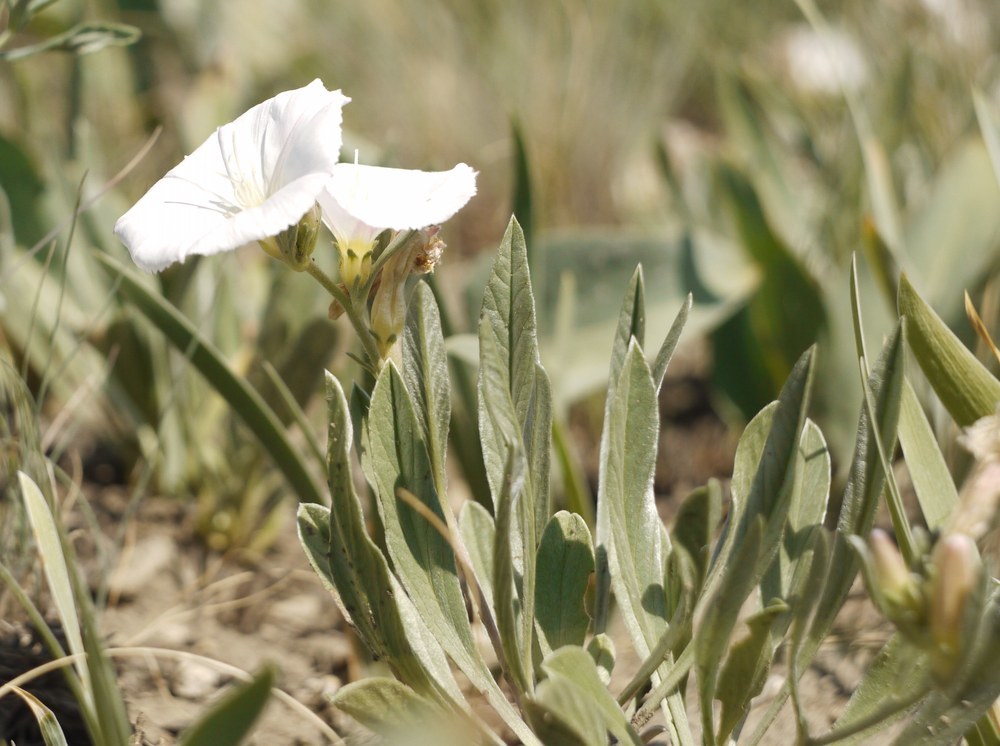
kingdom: Plantae
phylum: Tracheophyta
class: Magnoliopsida
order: Solanales
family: Convolvulaceae
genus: Convolvulus
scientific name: Convolvulus lineatus
